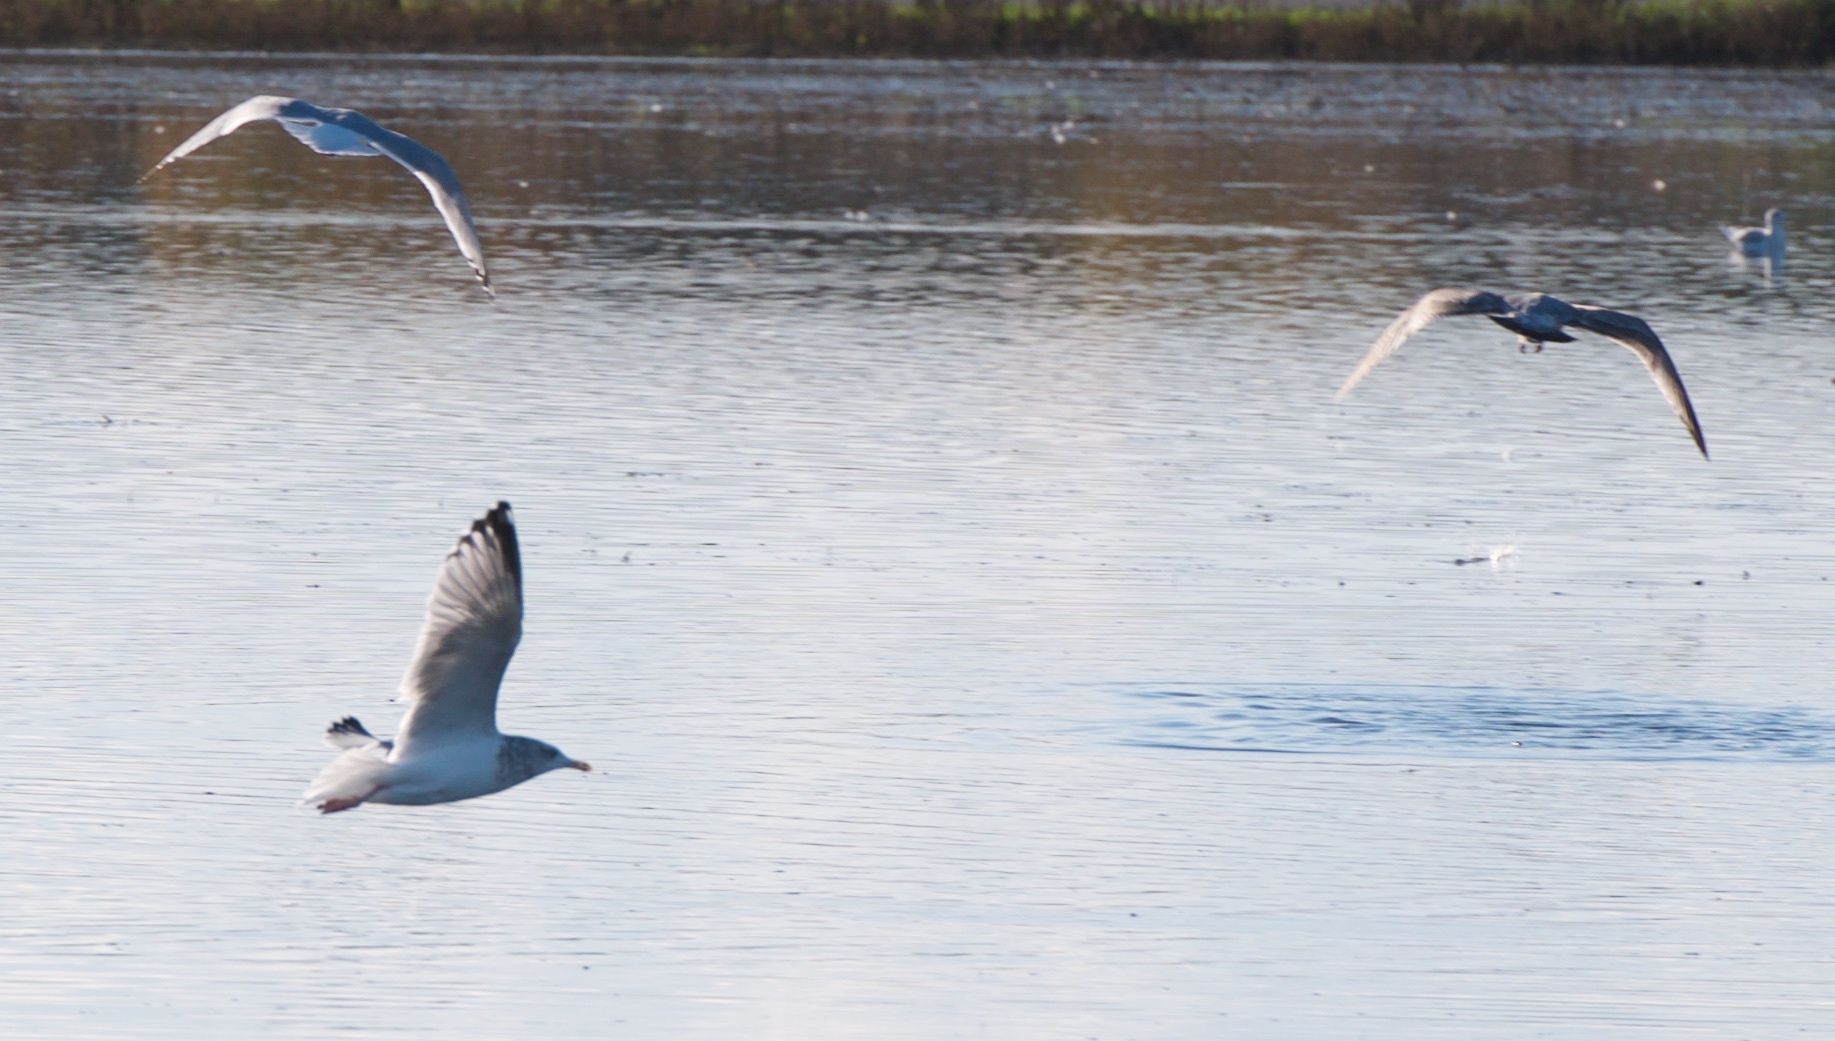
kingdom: Animalia
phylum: Chordata
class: Aves
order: Charadriiformes
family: Laridae
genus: Larus
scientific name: Larus argentatus
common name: Herring gull
